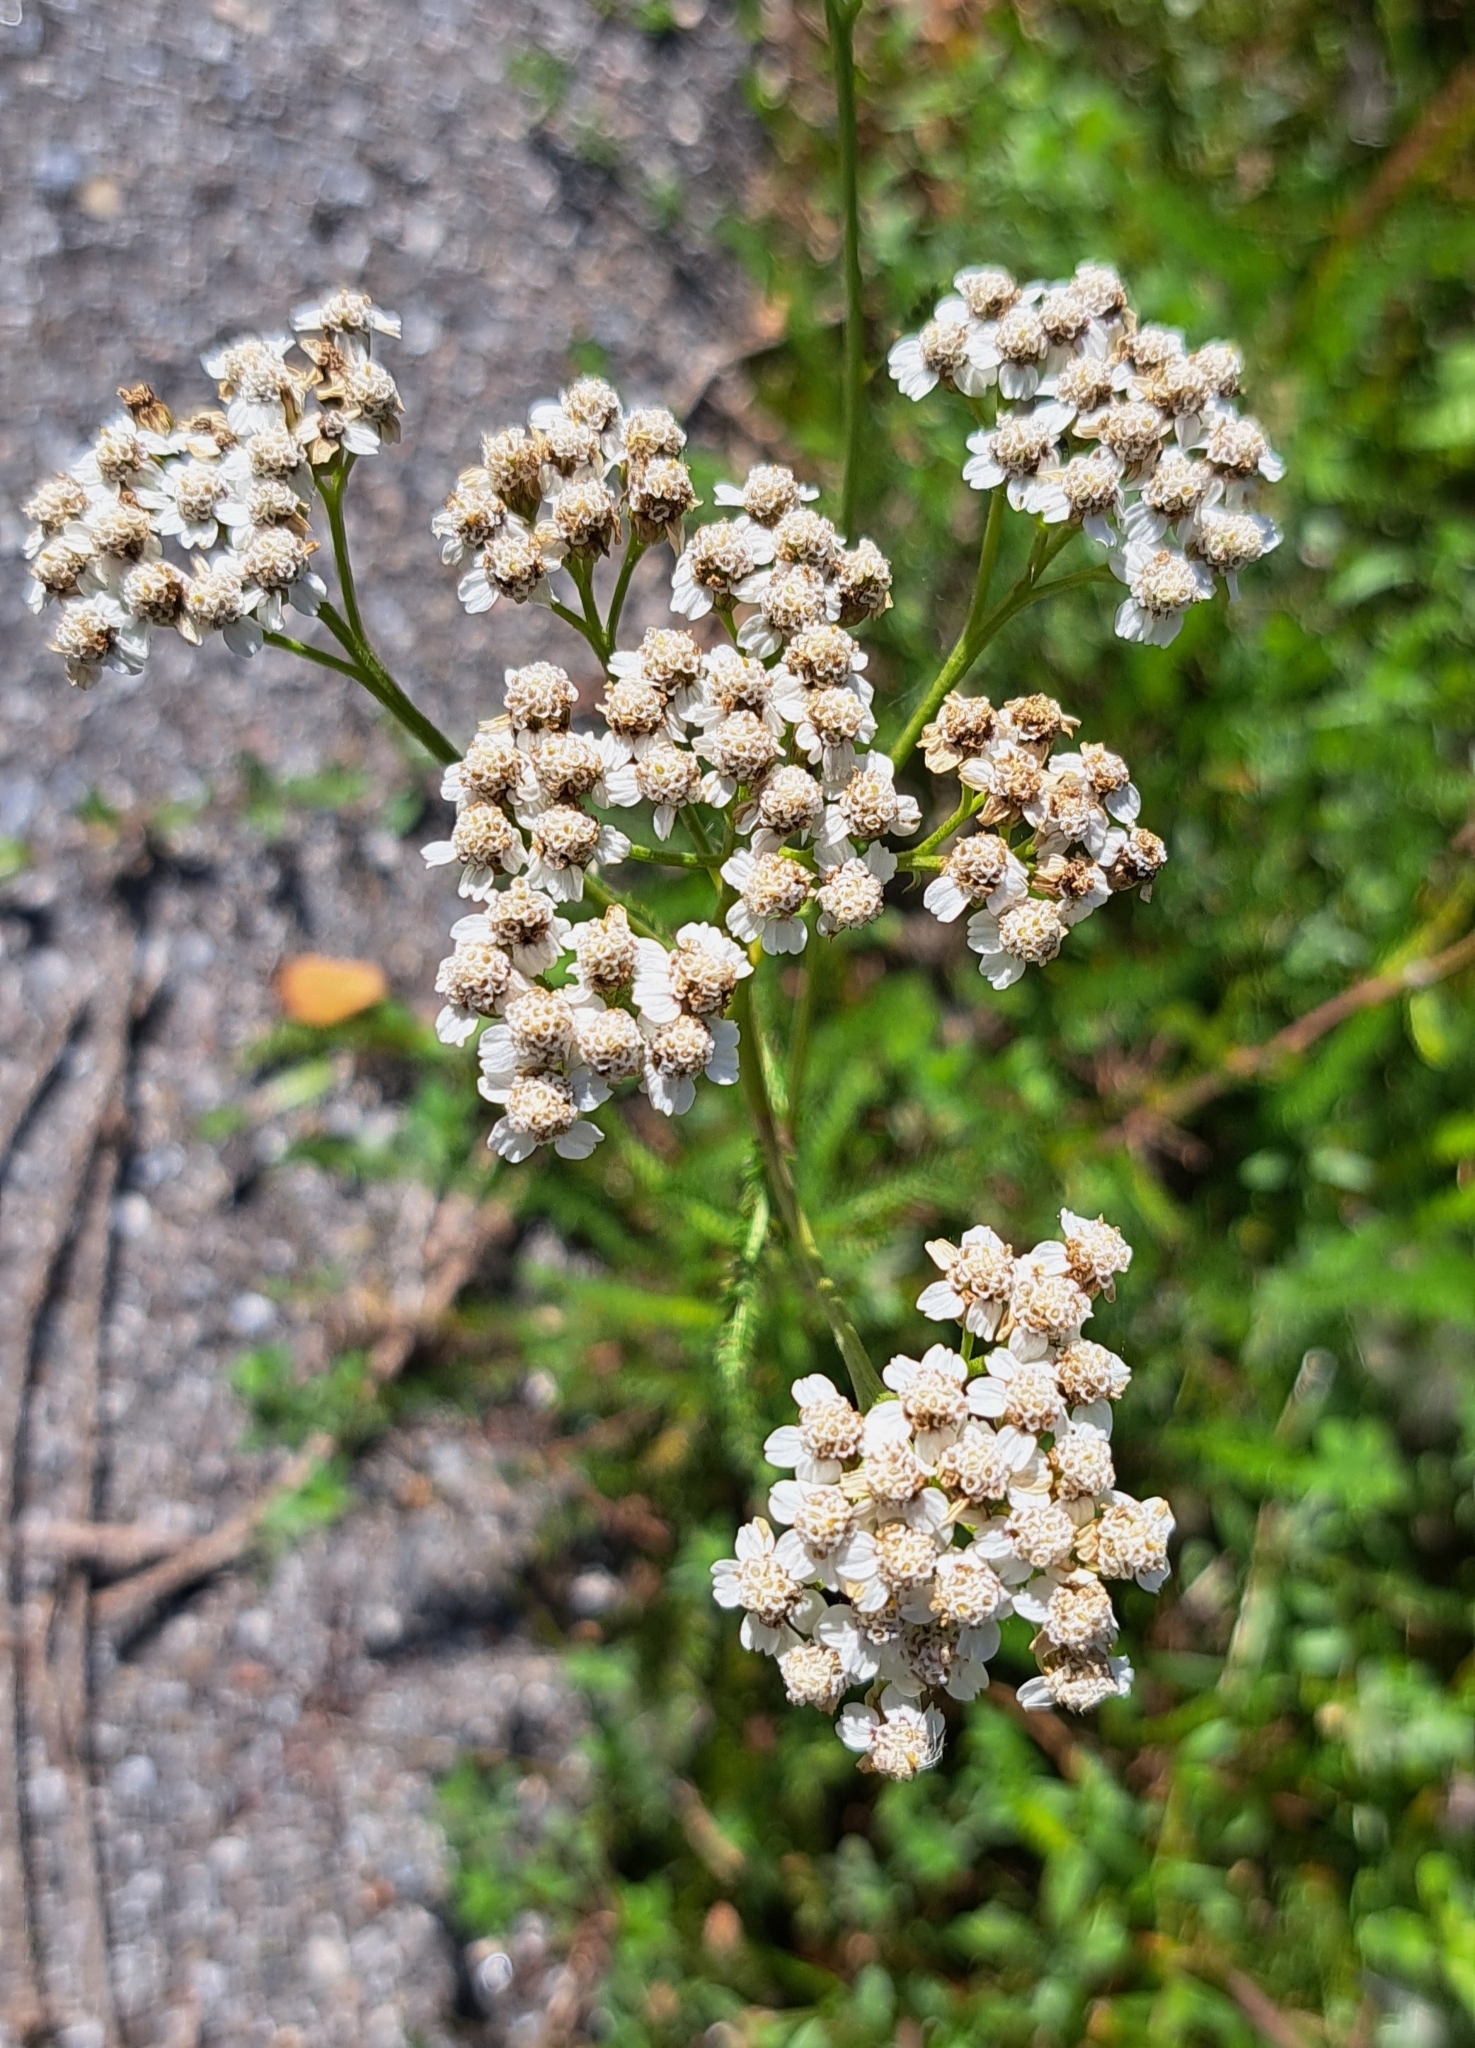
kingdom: Plantae
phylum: Tracheophyta
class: Magnoliopsida
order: Asterales
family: Asteraceae
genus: Achillea
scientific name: Achillea millefolium
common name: Yarrow
